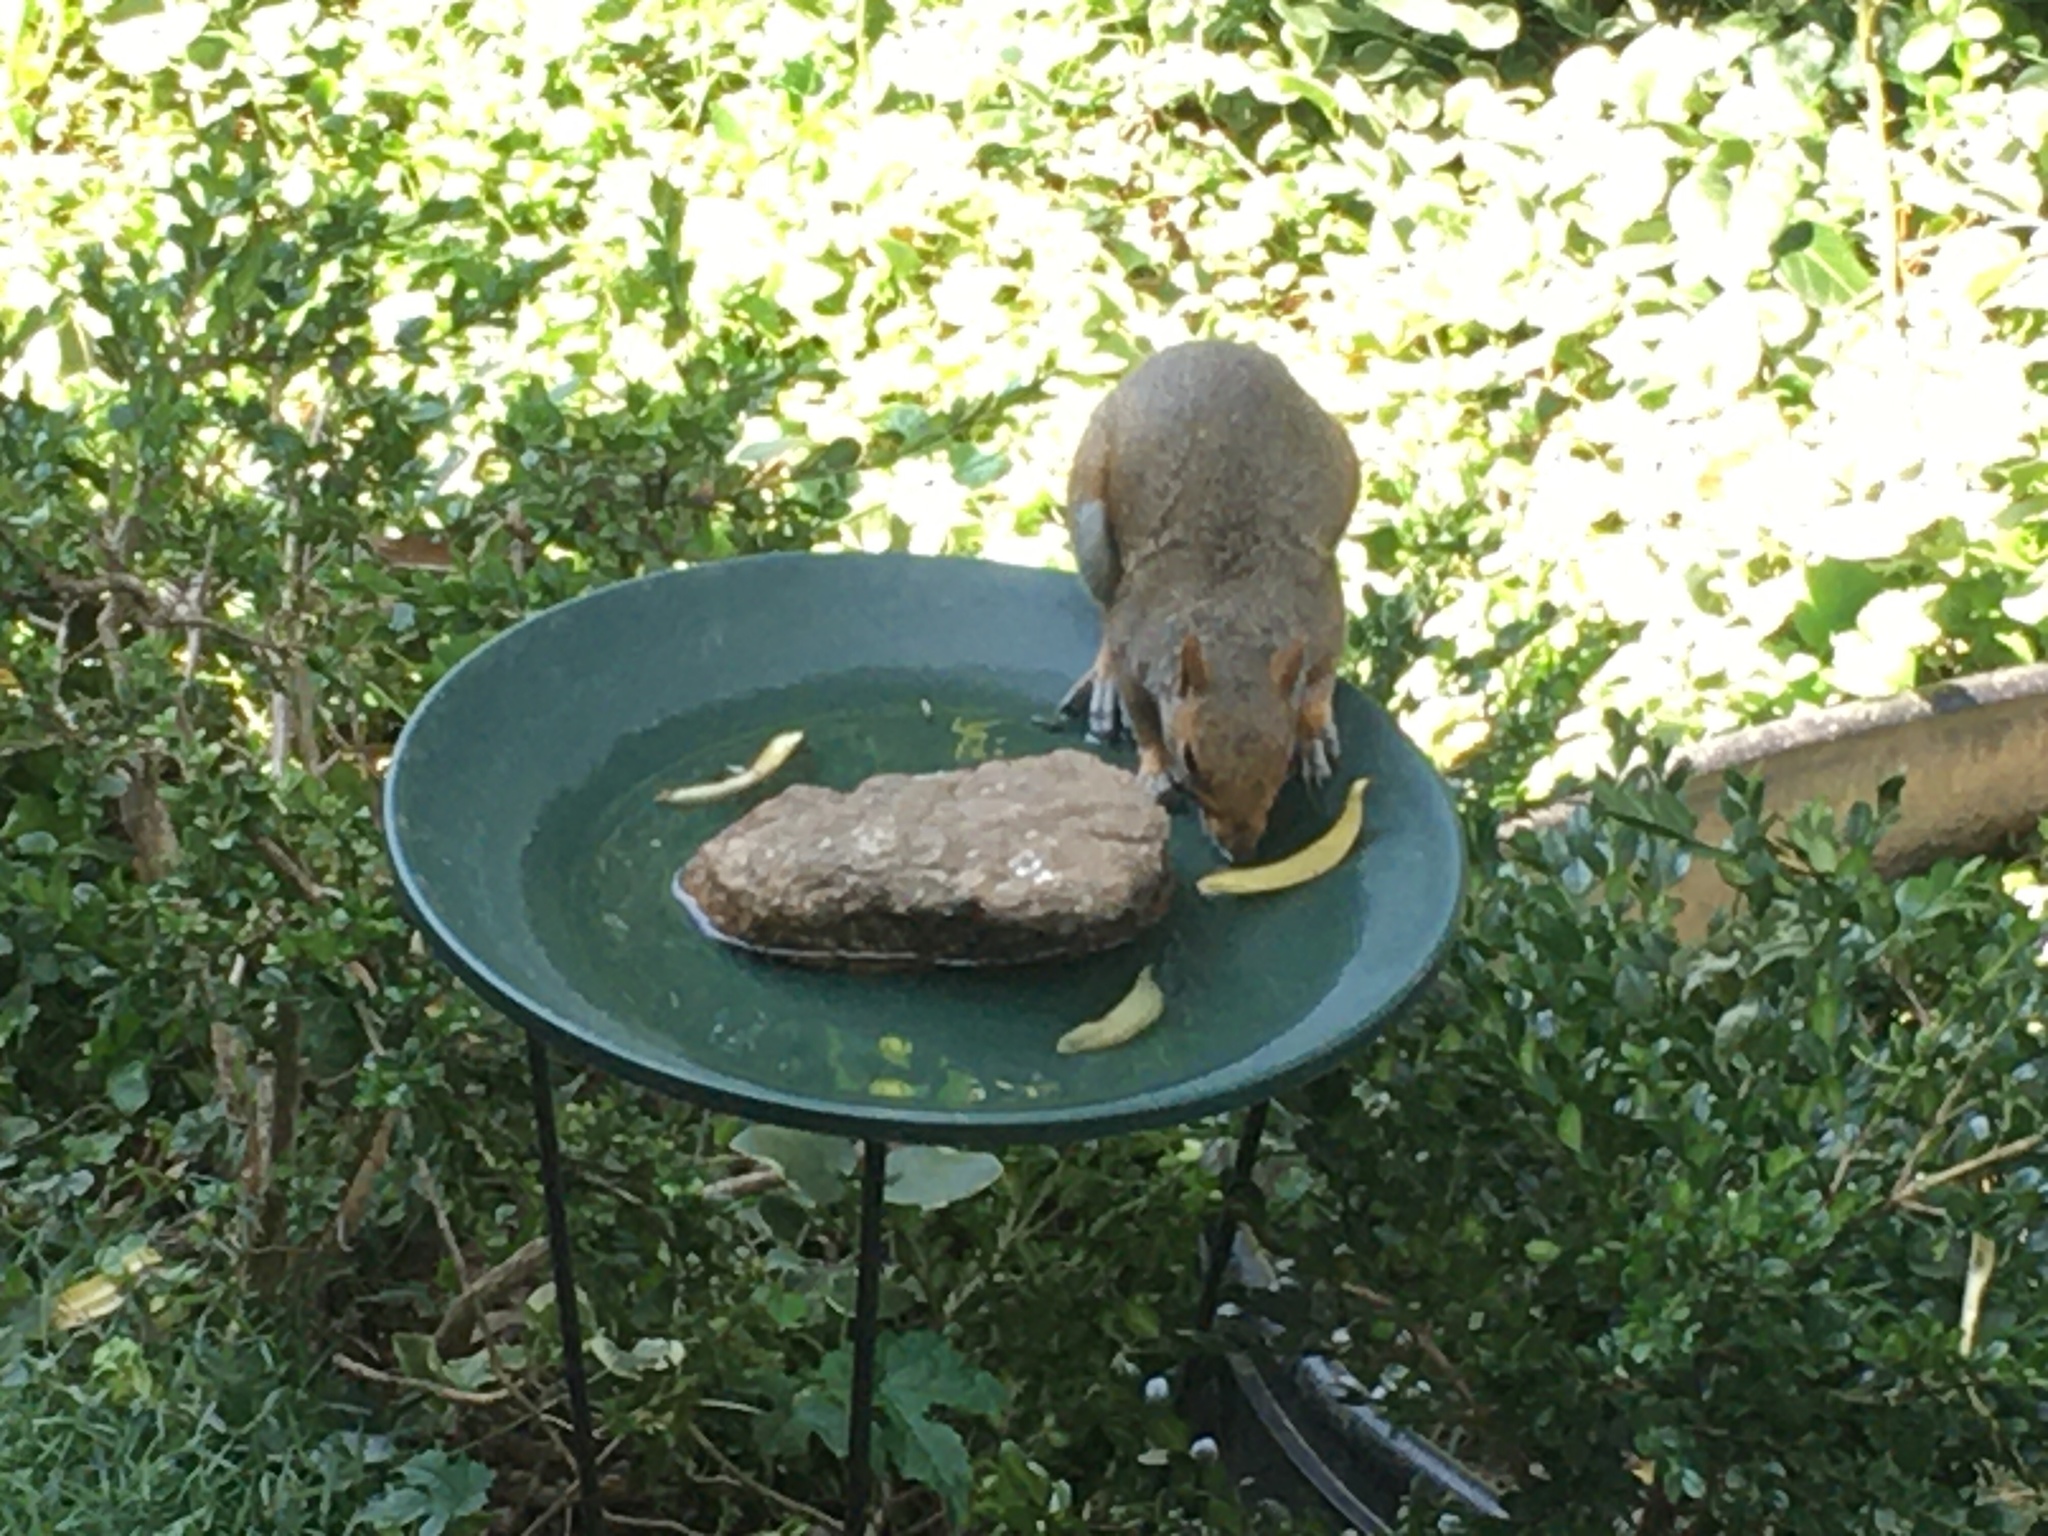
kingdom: Animalia
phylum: Chordata
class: Mammalia
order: Rodentia
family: Sciuridae
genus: Sciurus
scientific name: Sciurus carolinensis
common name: Eastern gray squirrel
